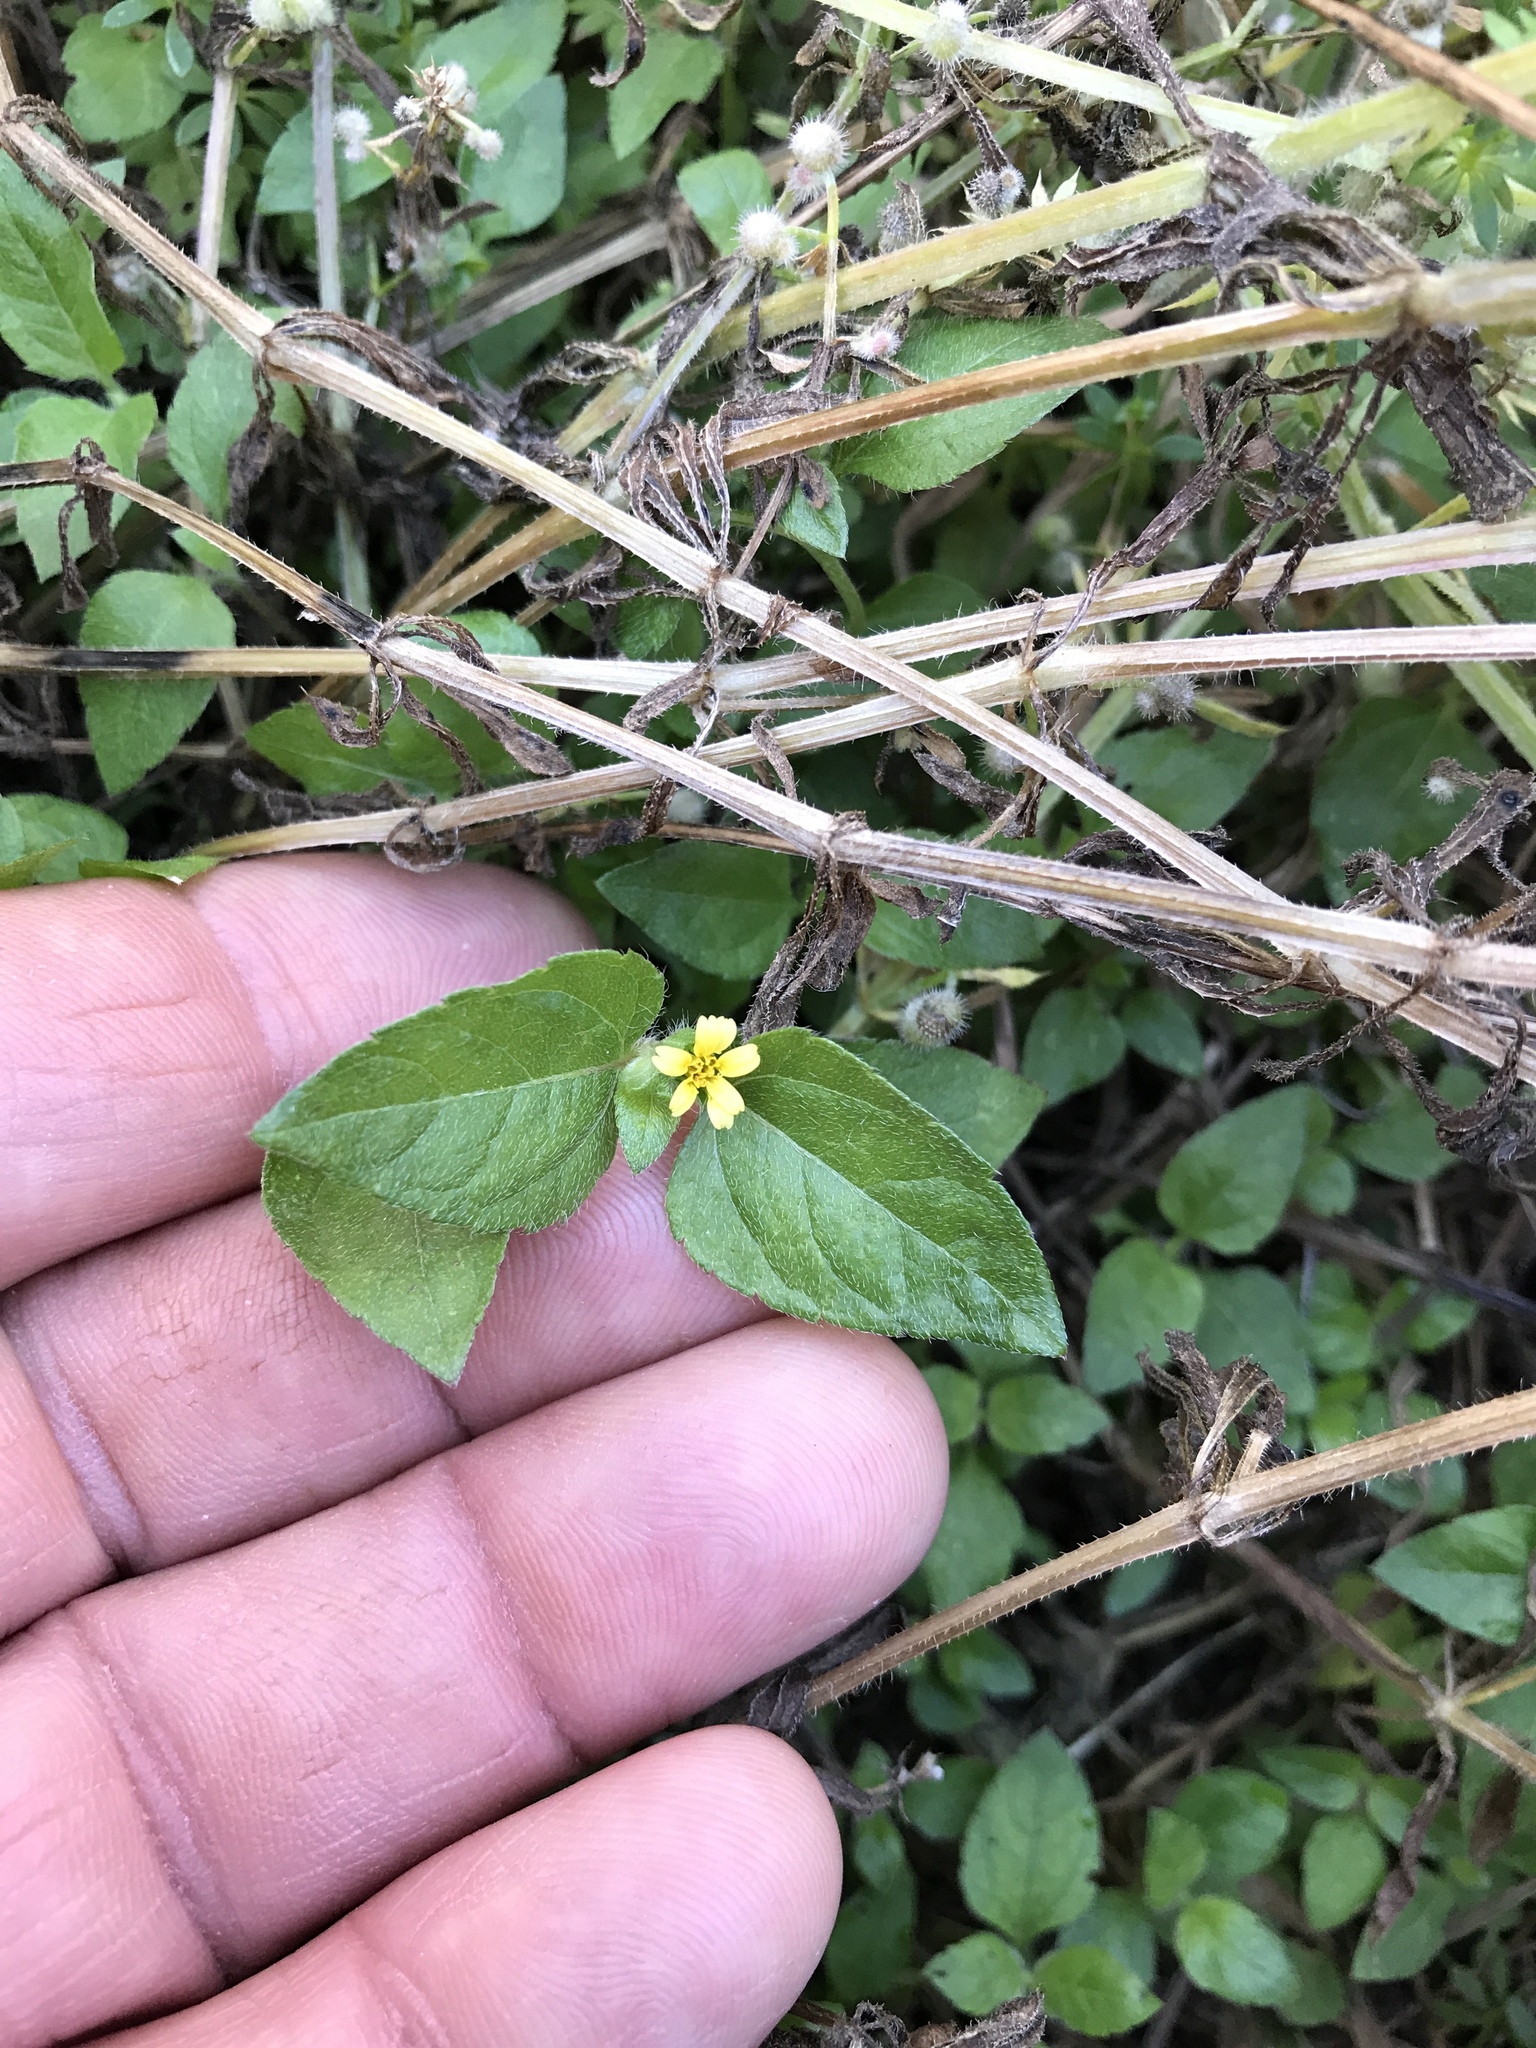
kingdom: Plantae
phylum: Tracheophyta
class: Magnoliopsida
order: Asterales
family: Asteraceae
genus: Calyptocarpus
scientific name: Calyptocarpus vialis
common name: Straggler daisy
